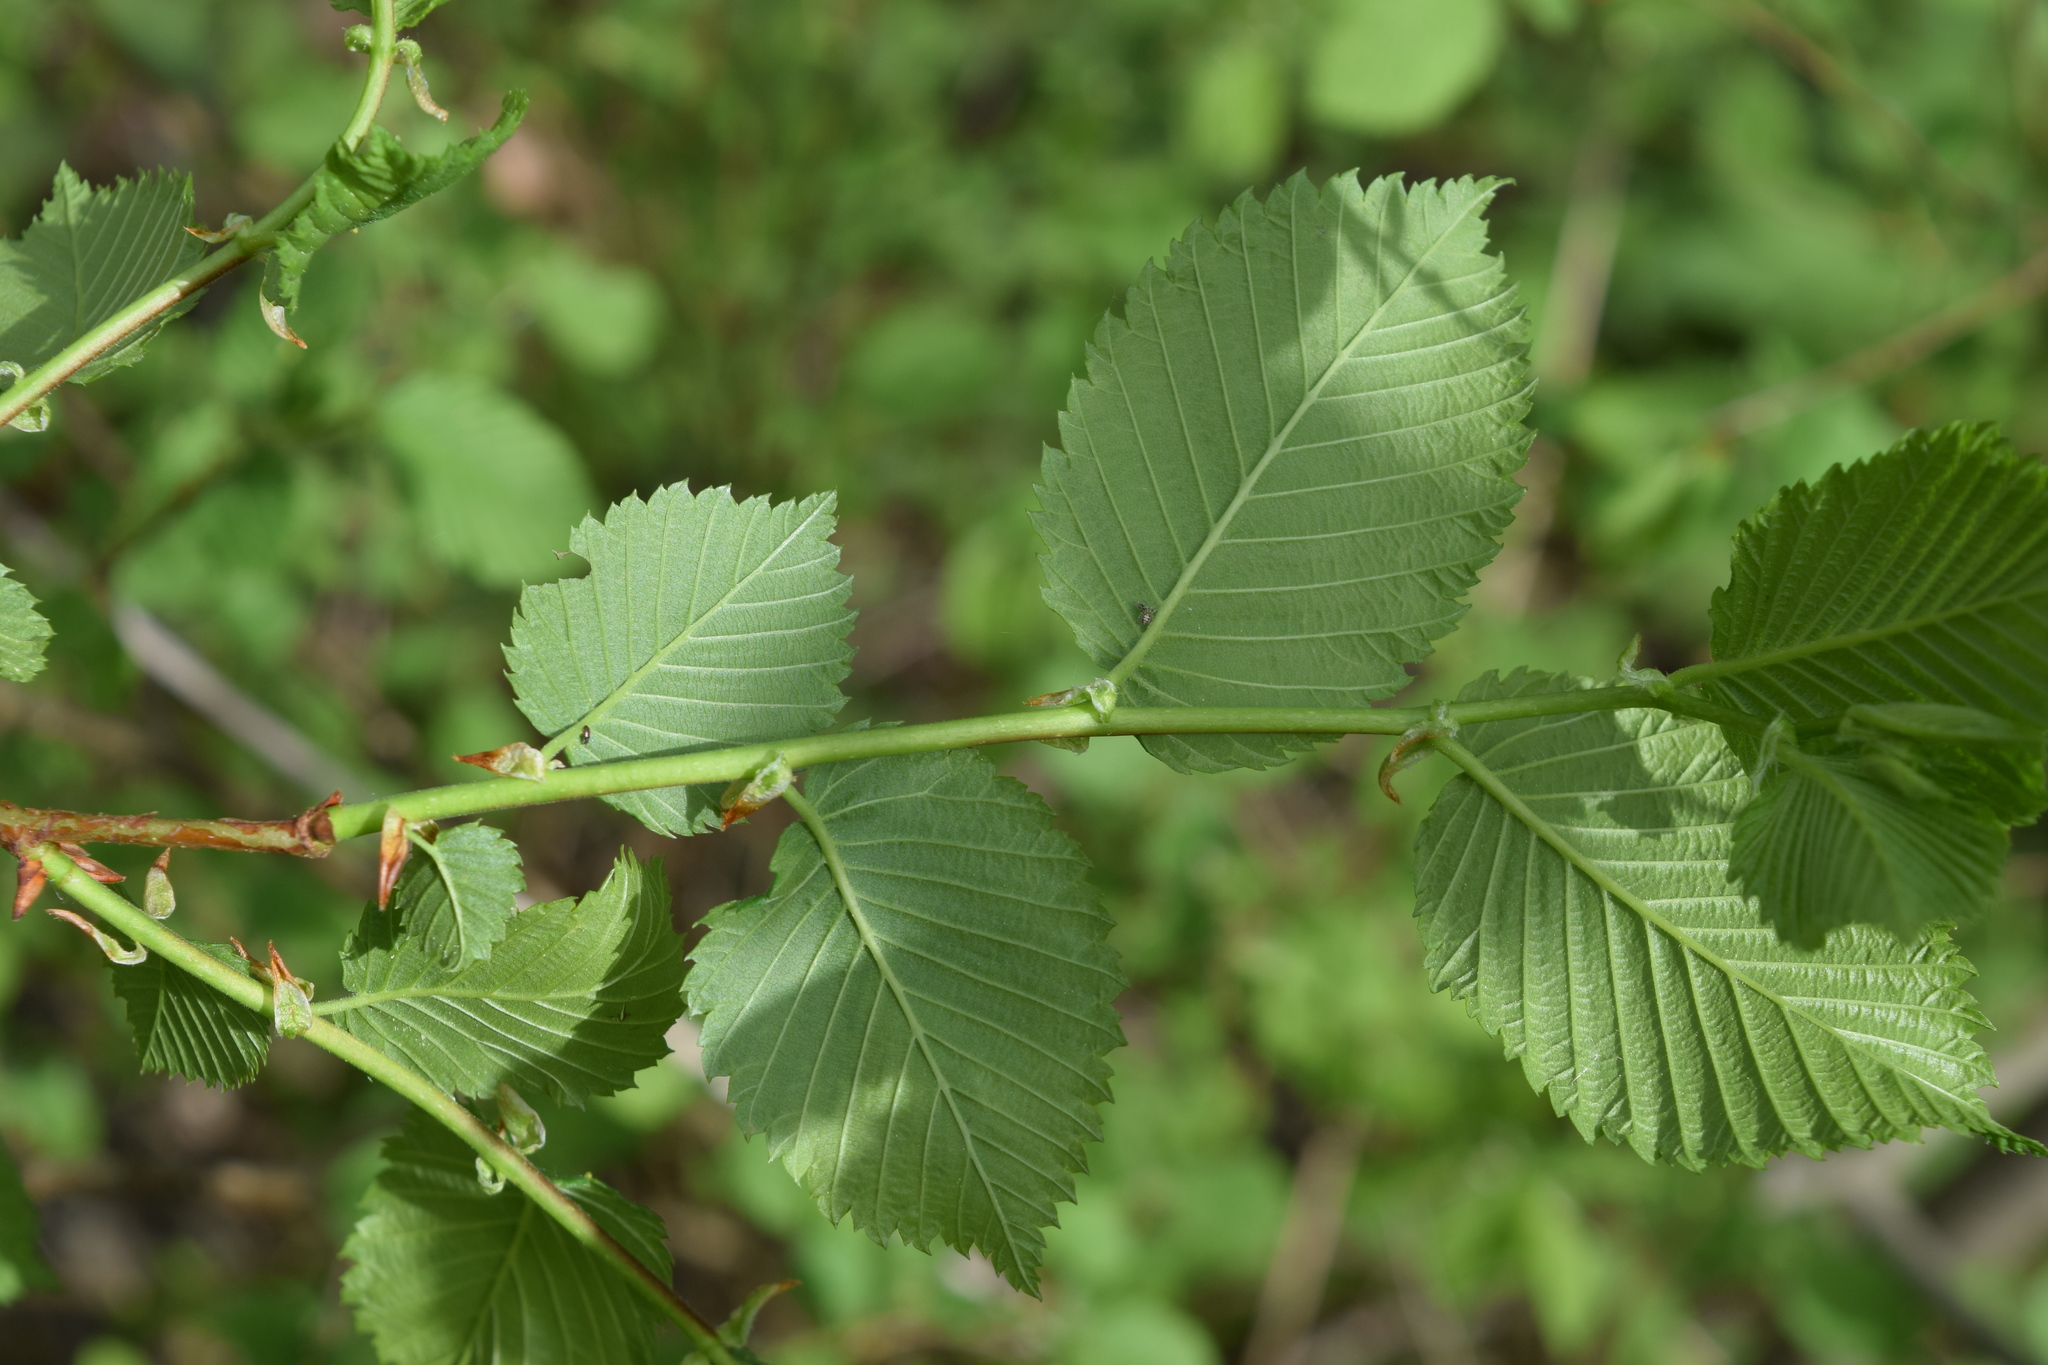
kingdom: Plantae
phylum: Tracheophyta
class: Magnoliopsida
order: Rosales
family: Ulmaceae
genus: Ulmus
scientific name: Ulmus laevis
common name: European white-elm
